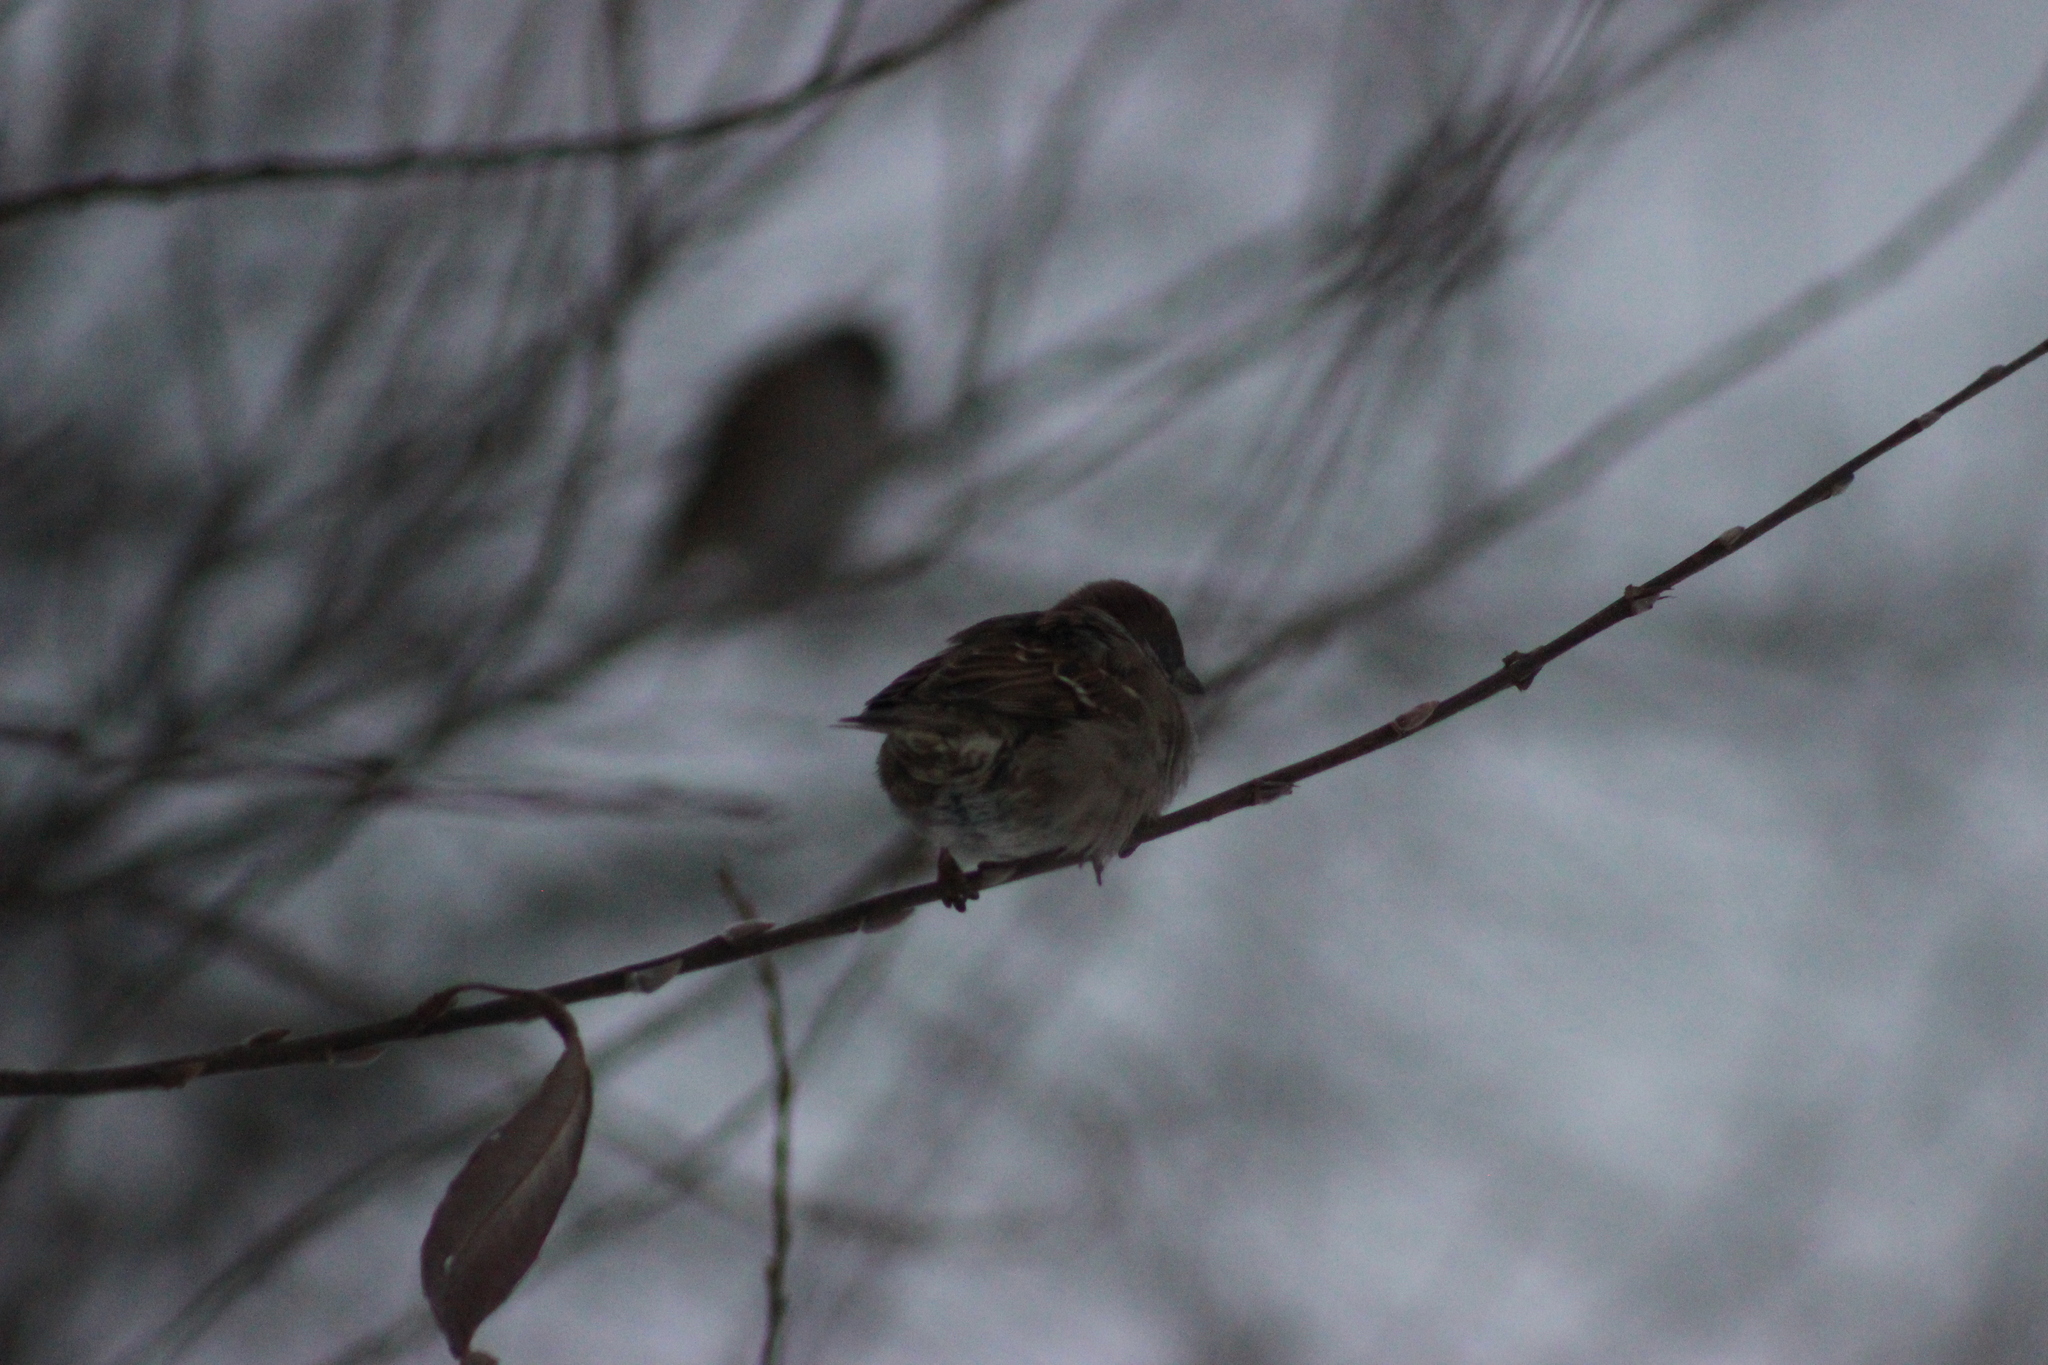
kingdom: Animalia
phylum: Chordata
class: Aves
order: Passeriformes
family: Passeridae
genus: Passer
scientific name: Passer montanus
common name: Eurasian tree sparrow
